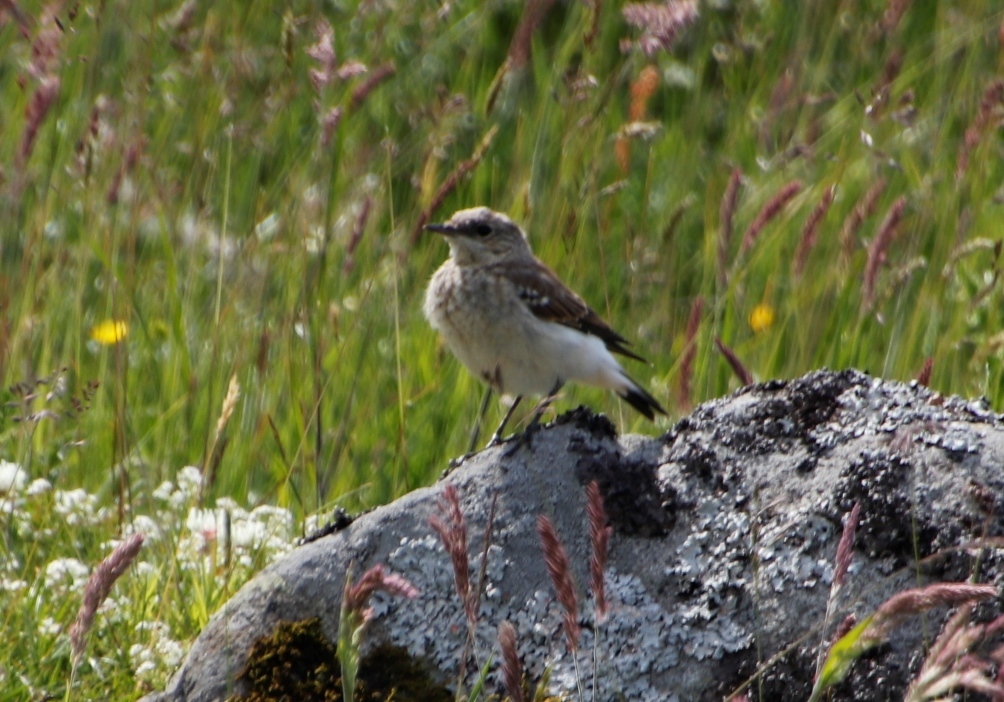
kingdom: Animalia
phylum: Chordata
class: Aves
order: Passeriformes
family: Muscicapidae
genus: Oenanthe
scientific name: Oenanthe oenanthe
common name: Northern wheatear
